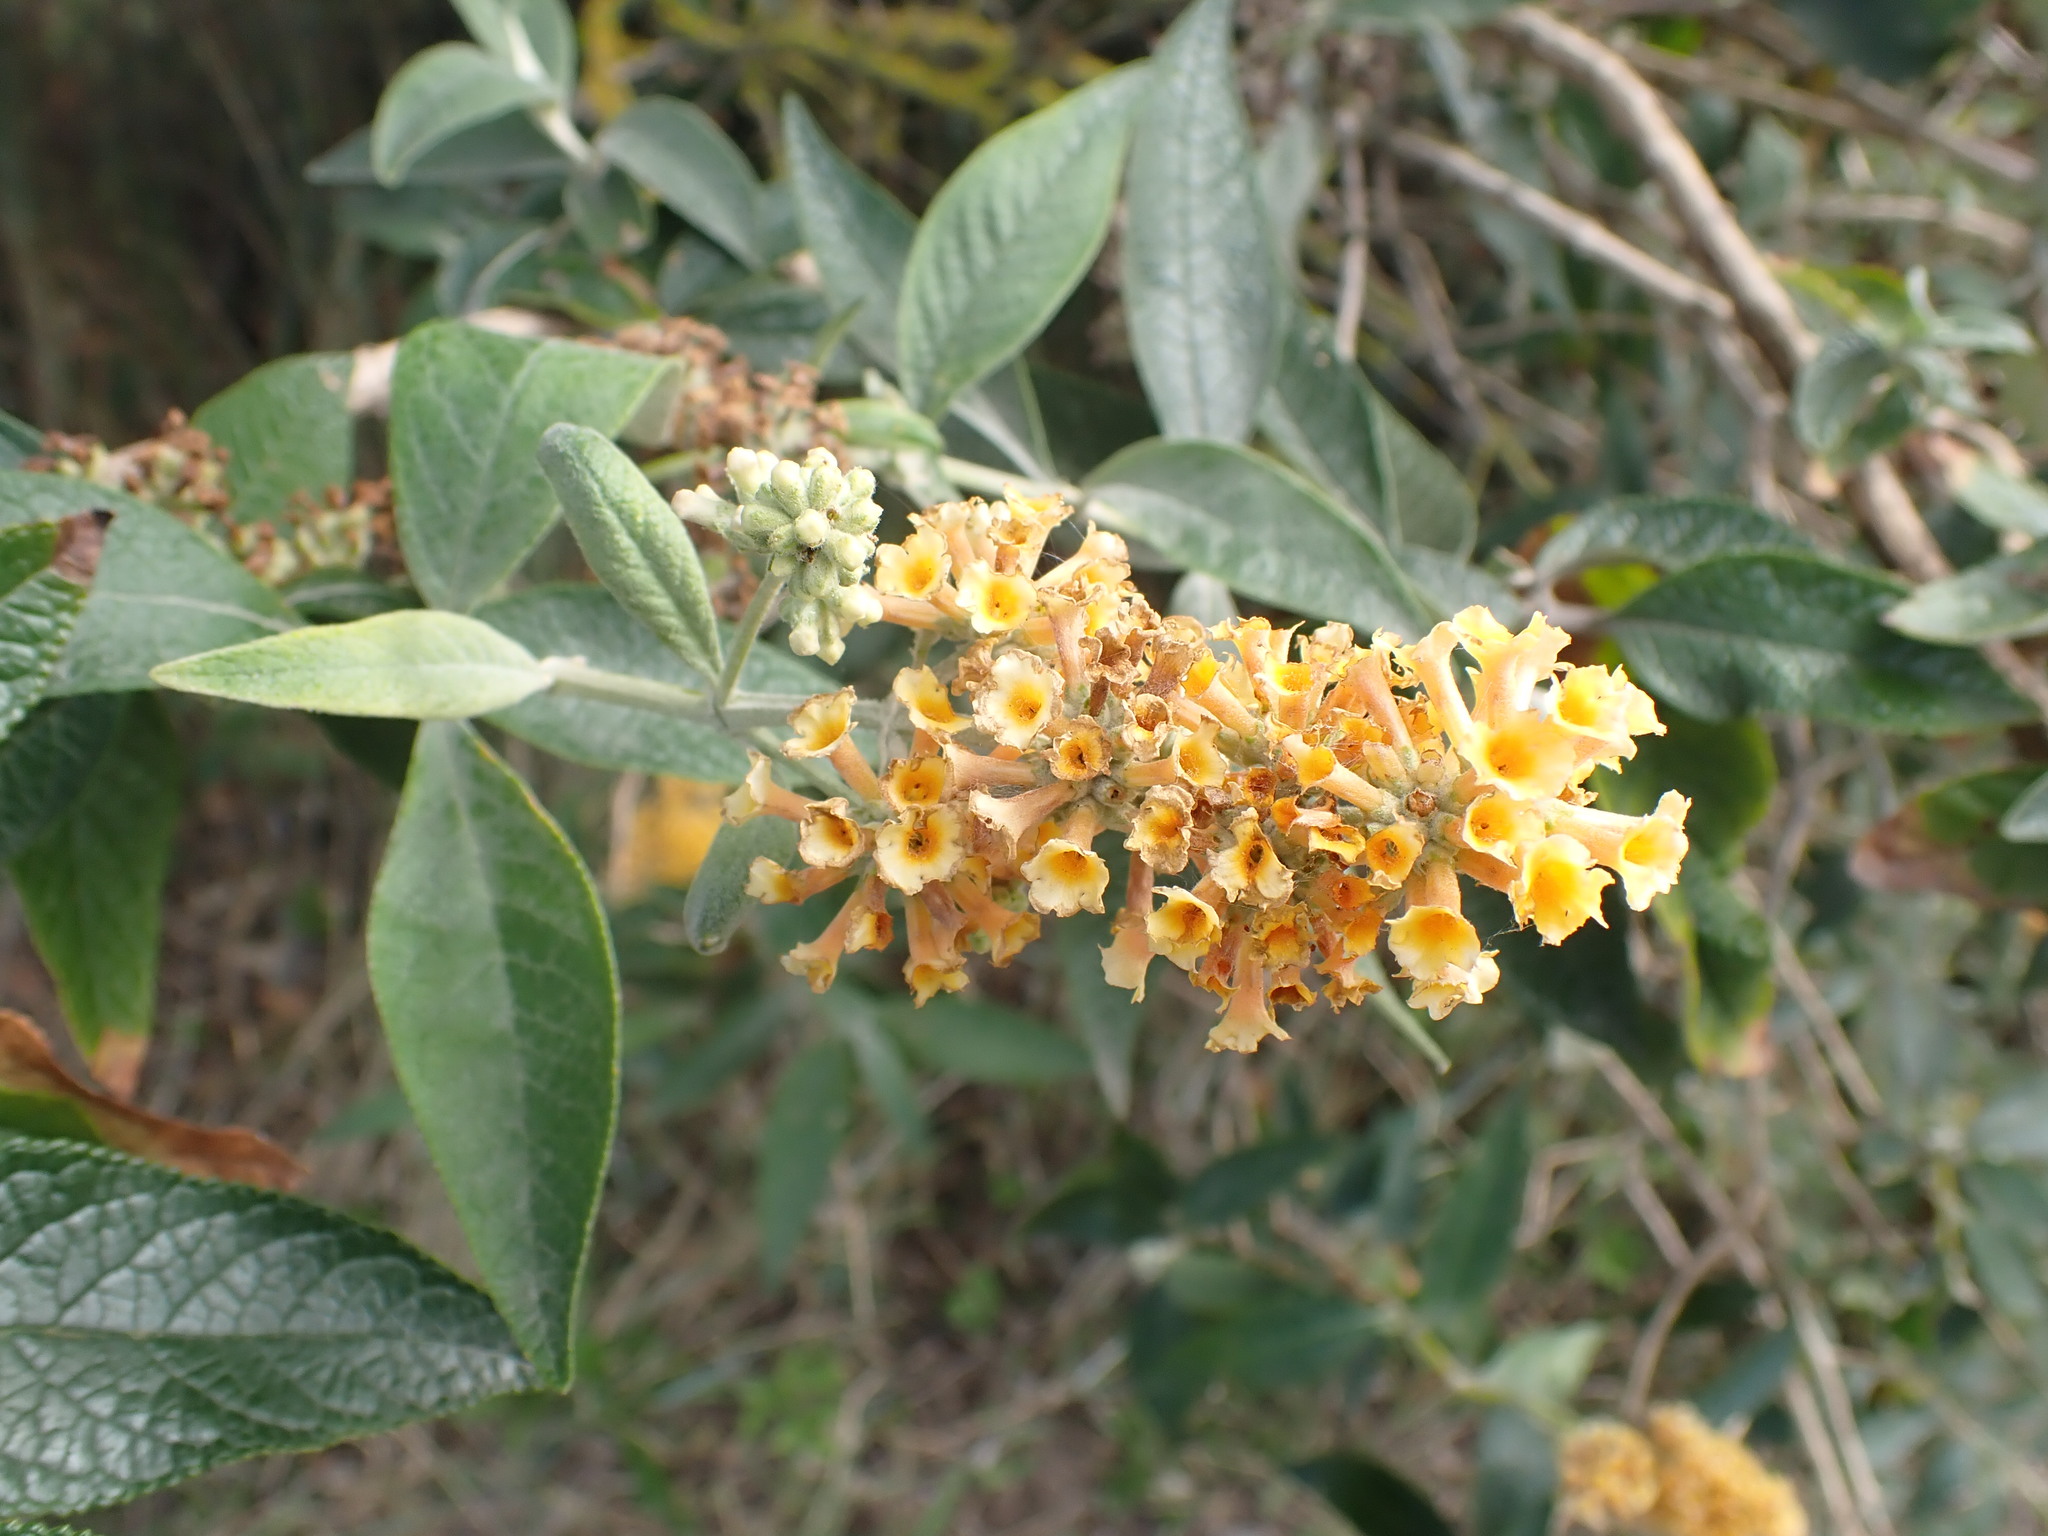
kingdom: Plantae
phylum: Tracheophyta
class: Magnoliopsida
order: Lamiales
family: Scrophulariaceae
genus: Buddleja
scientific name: Buddleja weyeriana
